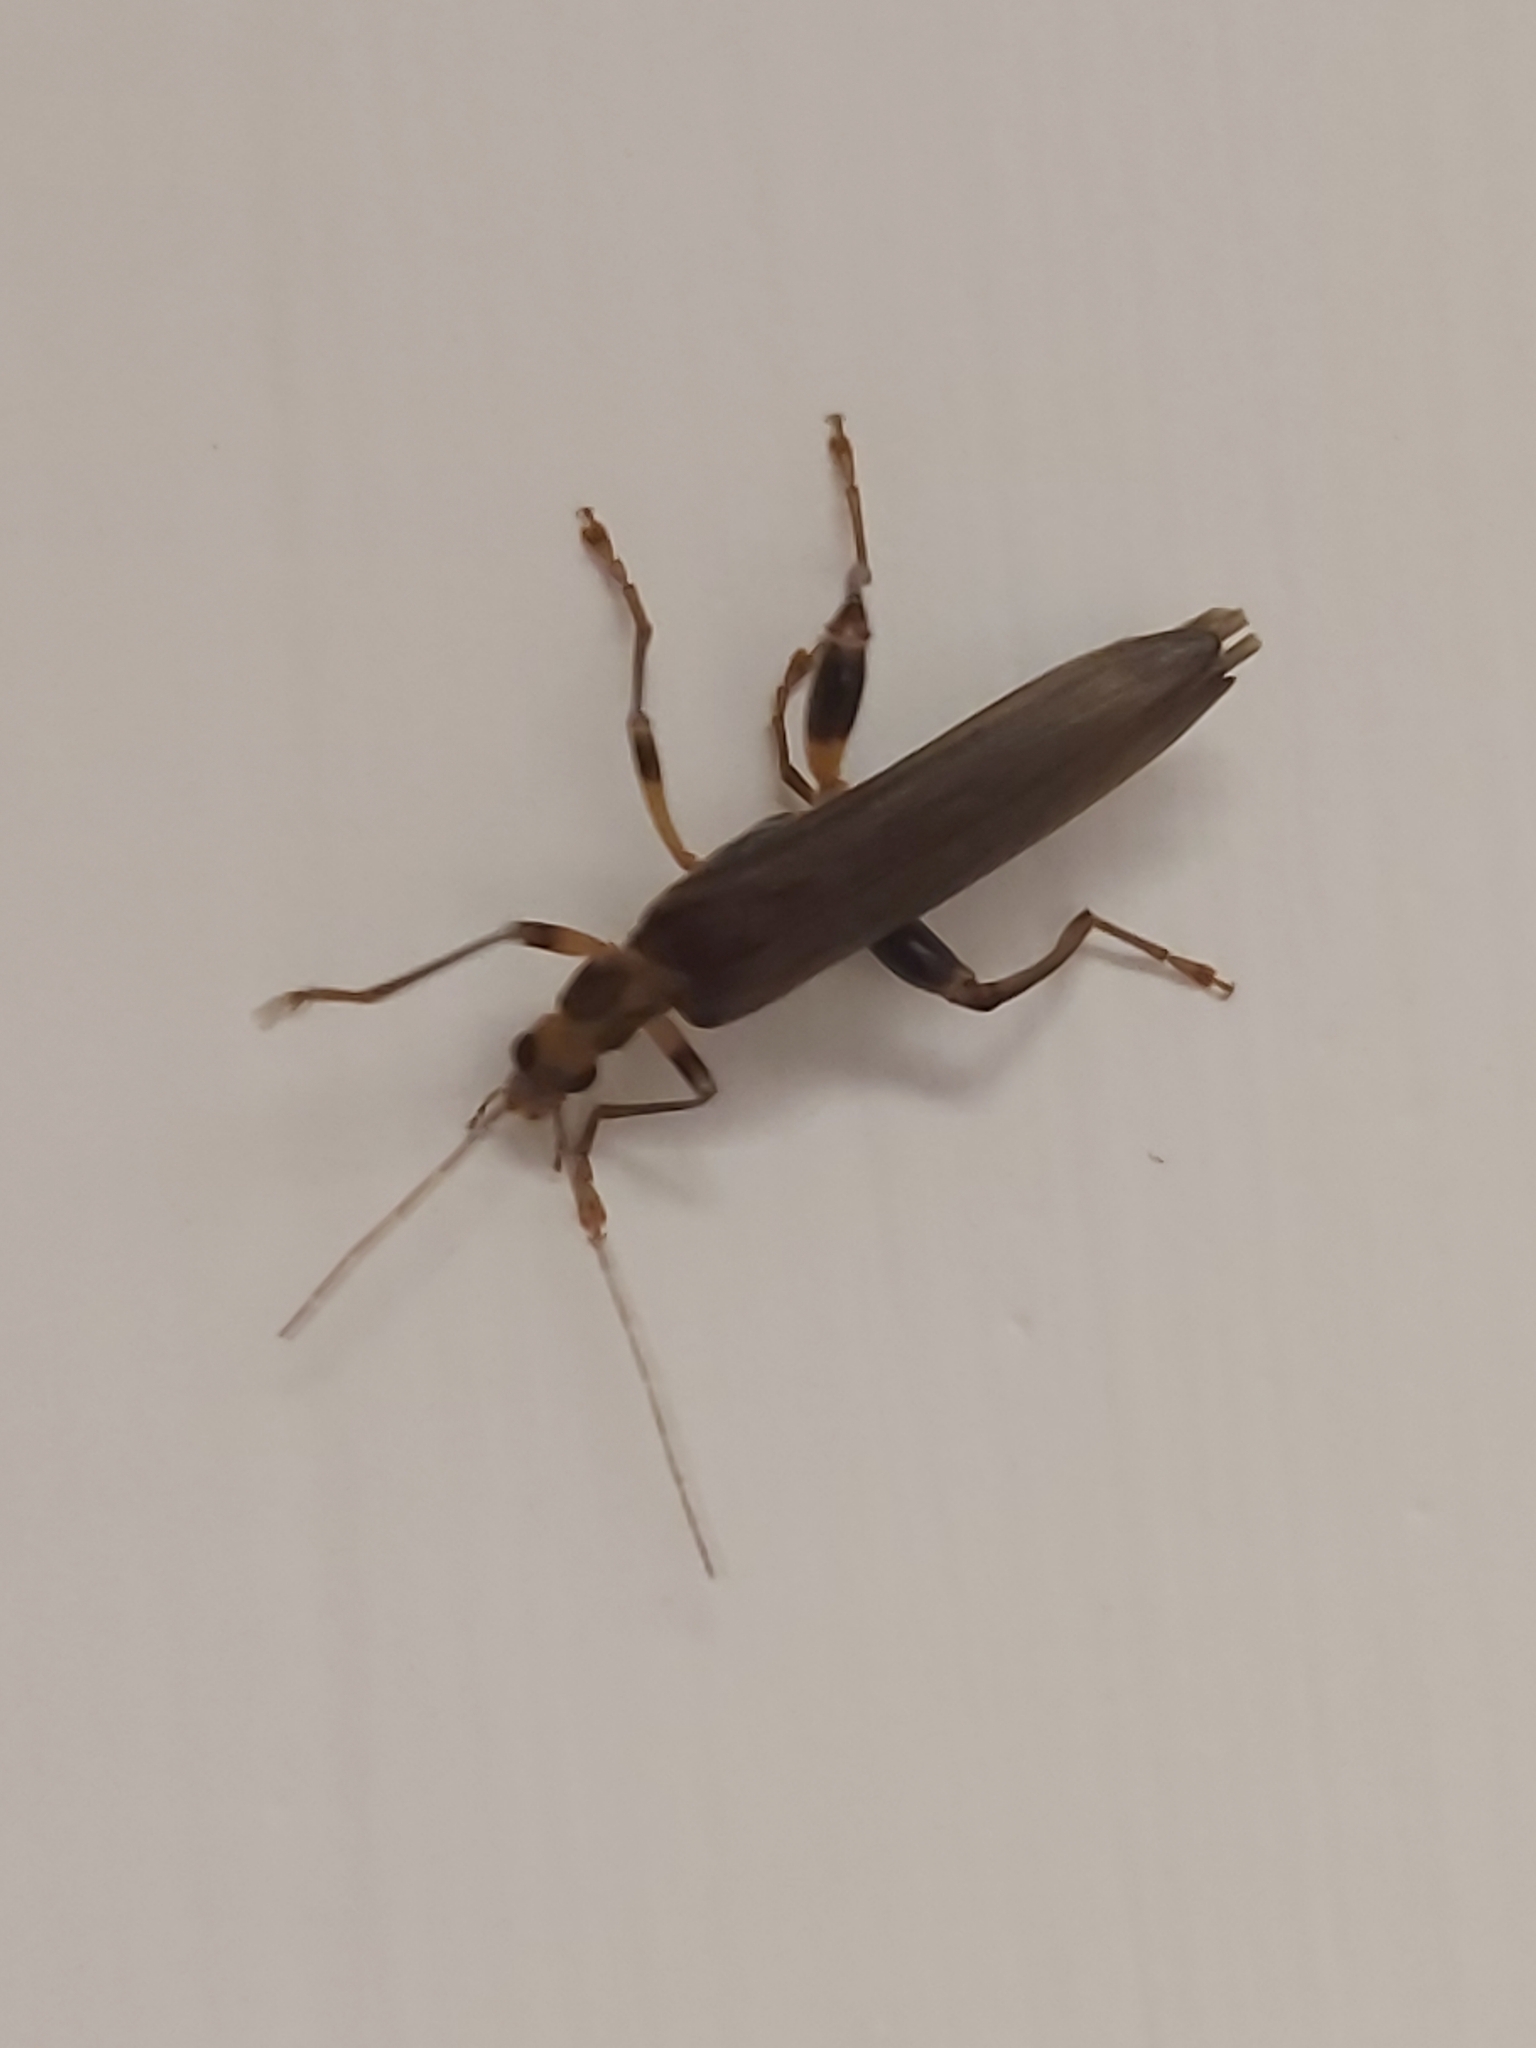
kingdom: Animalia
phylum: Arthropoda
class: Insecta
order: Coleoptera
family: Oedemeridae
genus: Oedemera
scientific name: Oedemera femoralis
